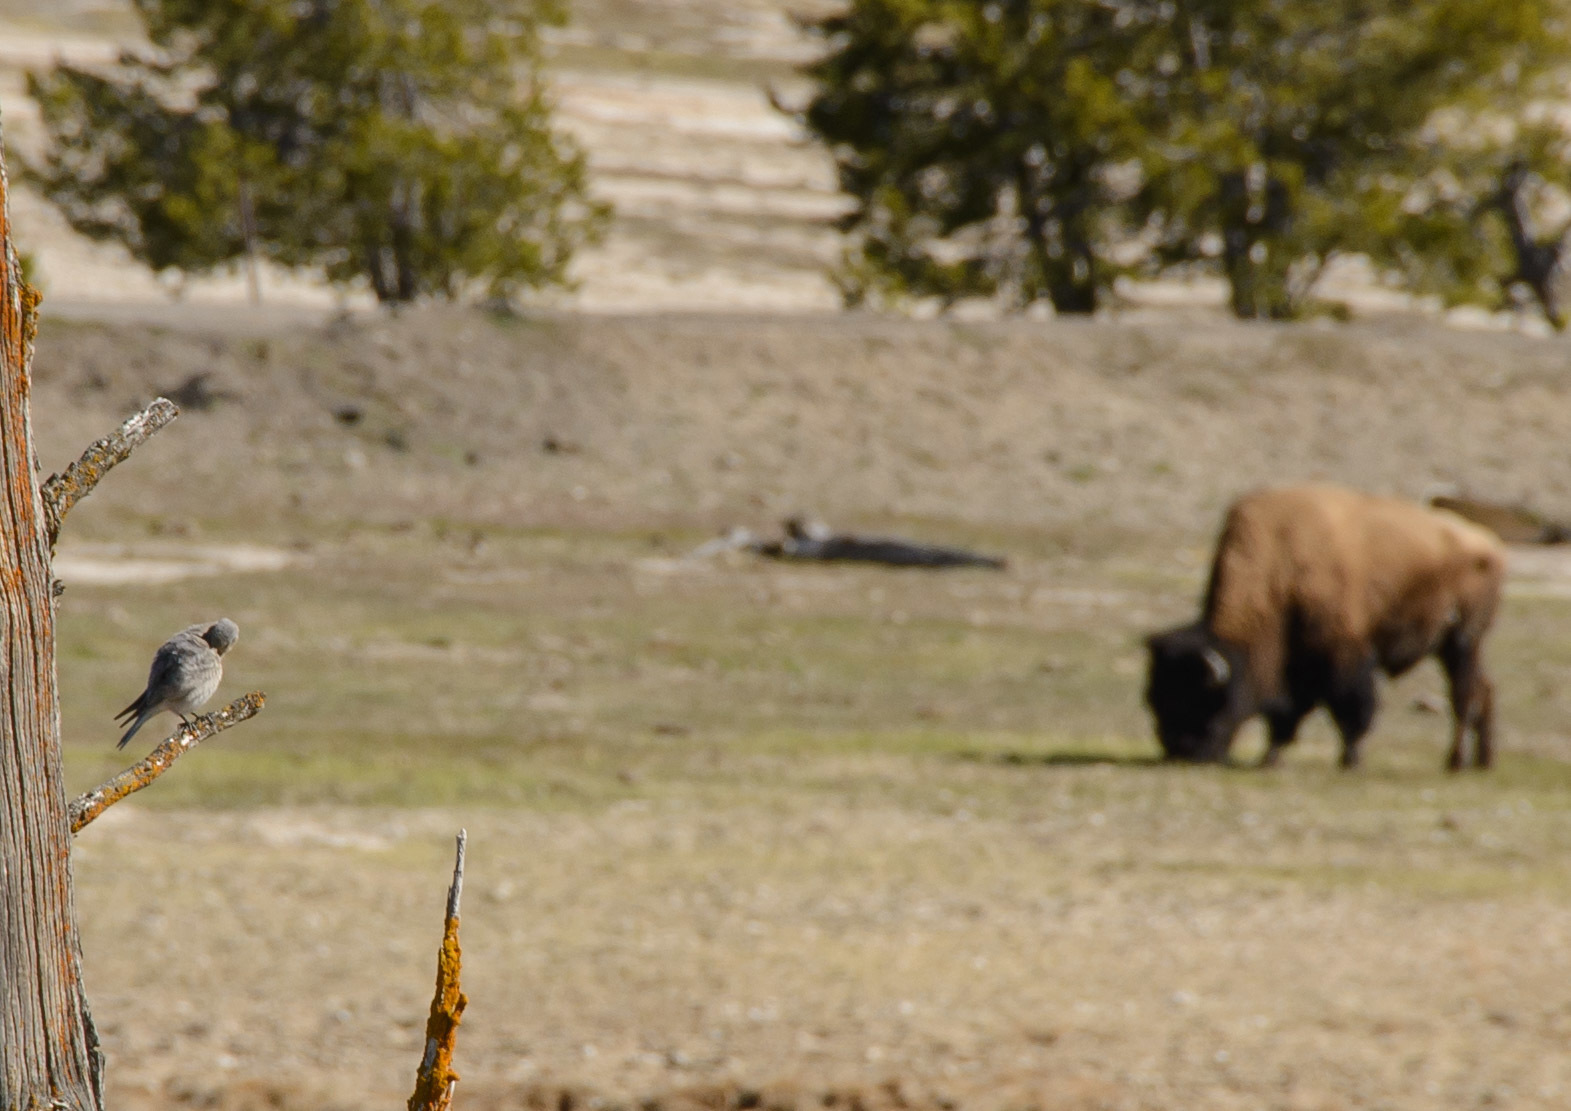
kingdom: Animalia
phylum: Chordata
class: Aves
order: Passeriformes
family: Turdidae
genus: Sialia
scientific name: Sialia currucoides
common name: Mountain bluebird
